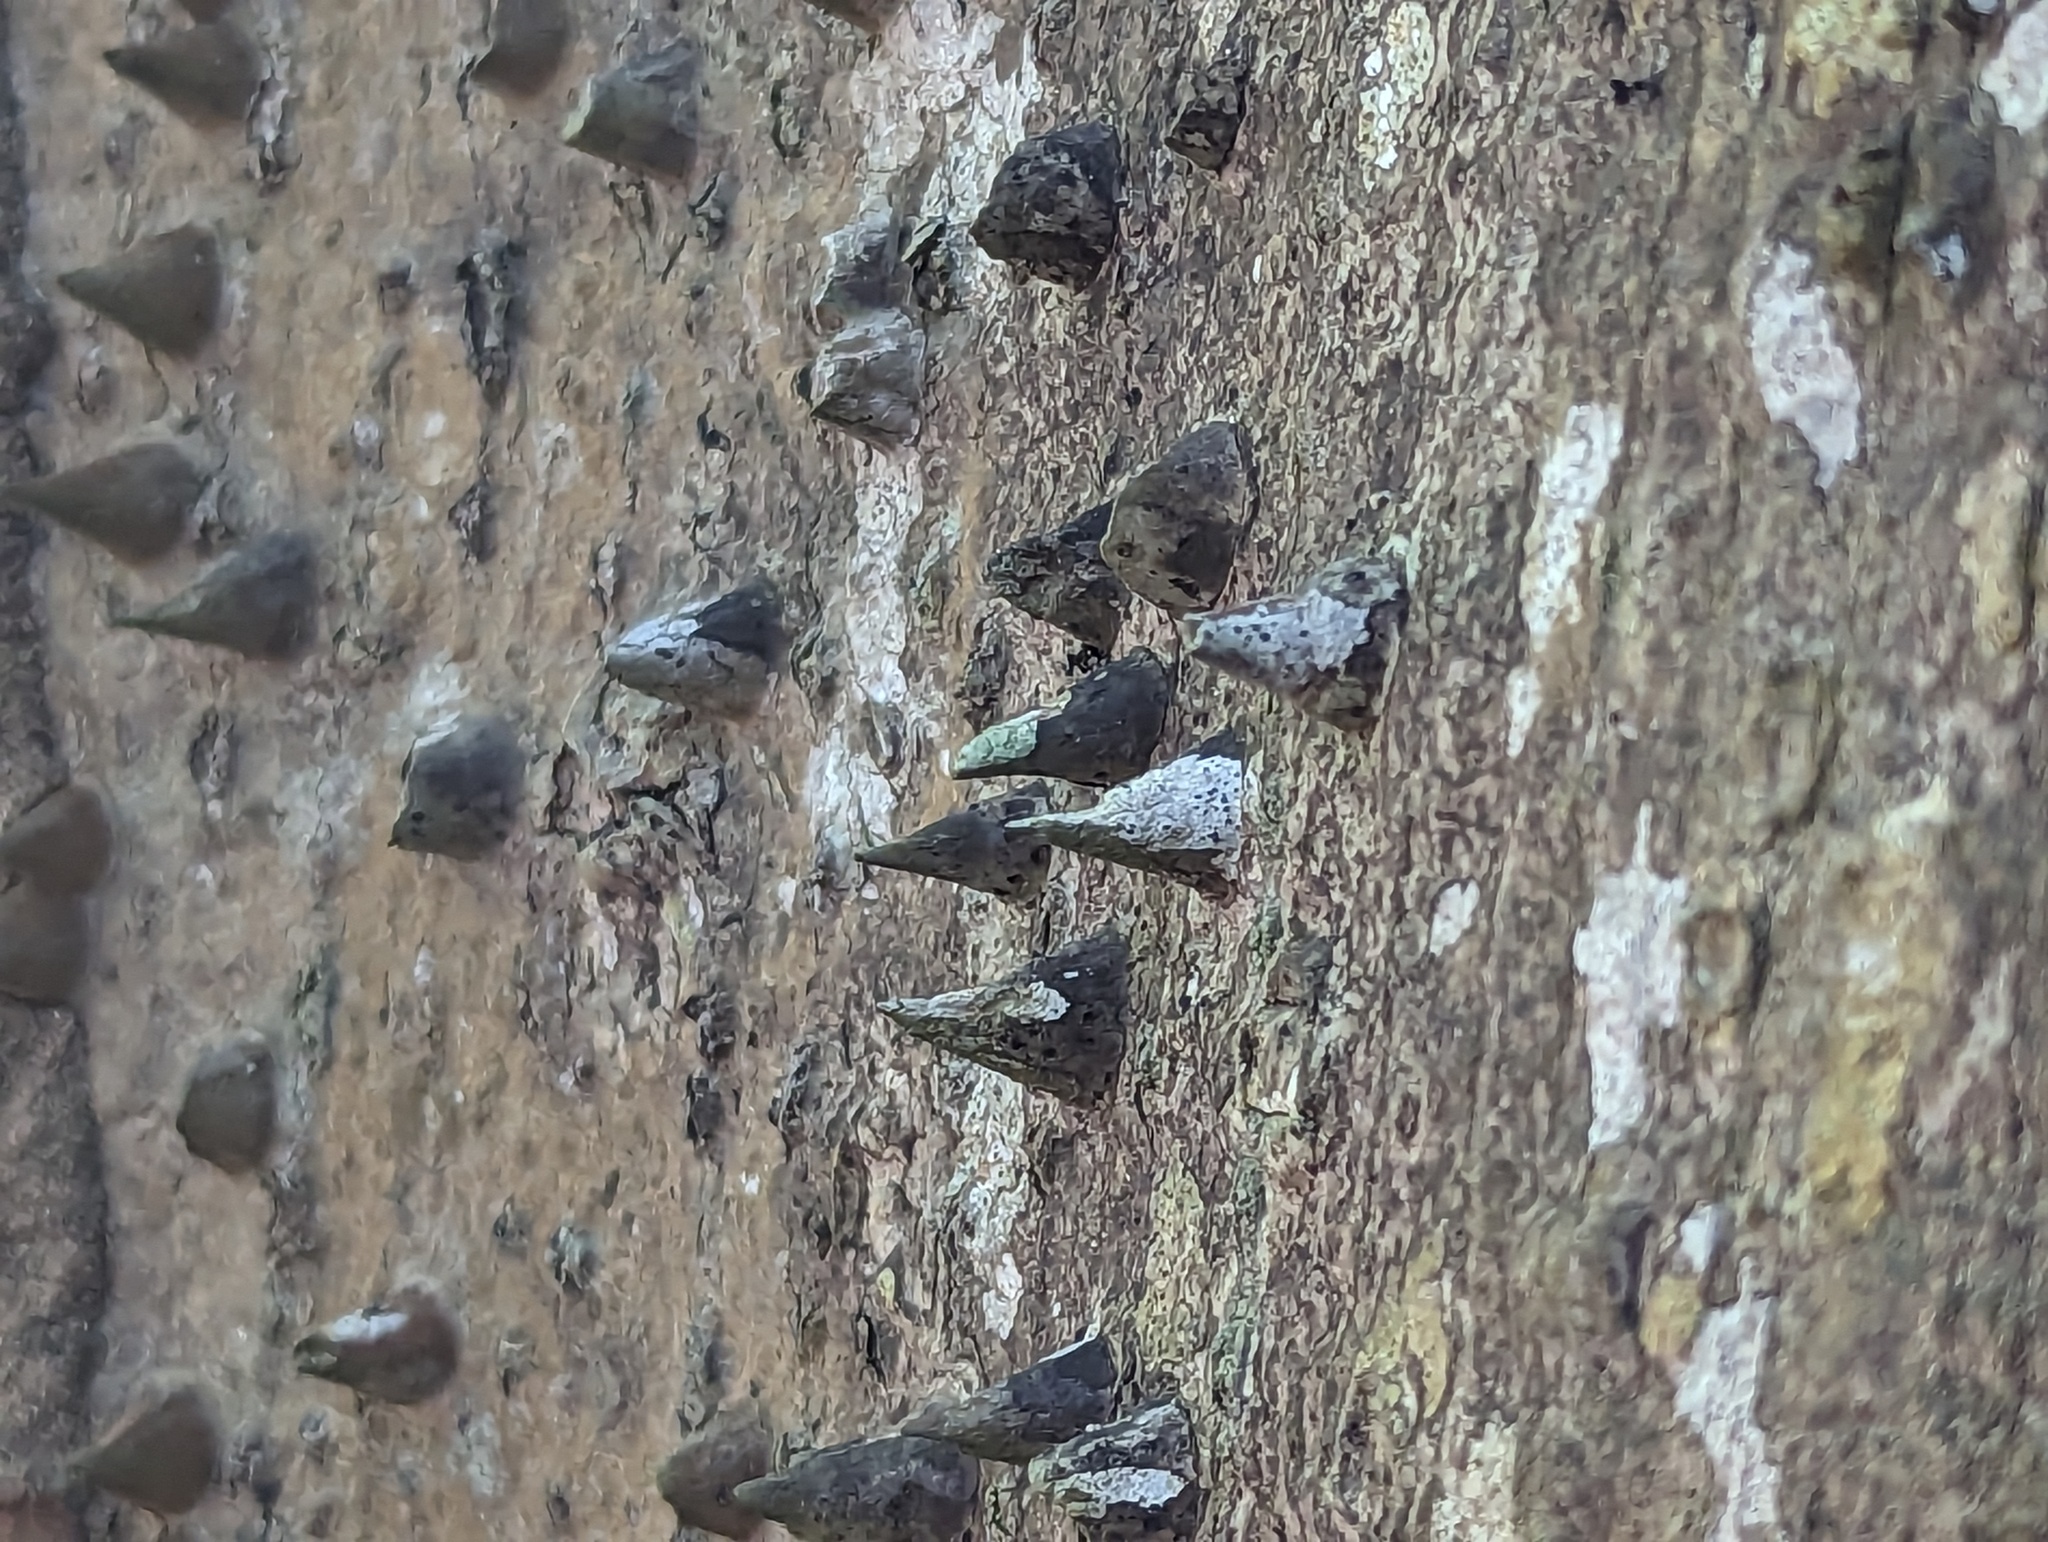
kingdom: Plantae
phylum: Tracheophyta
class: Magnoliopsida
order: Malvales
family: Malvaceae
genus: Ceiba
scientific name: Ceiba pentandra
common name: Kapok
